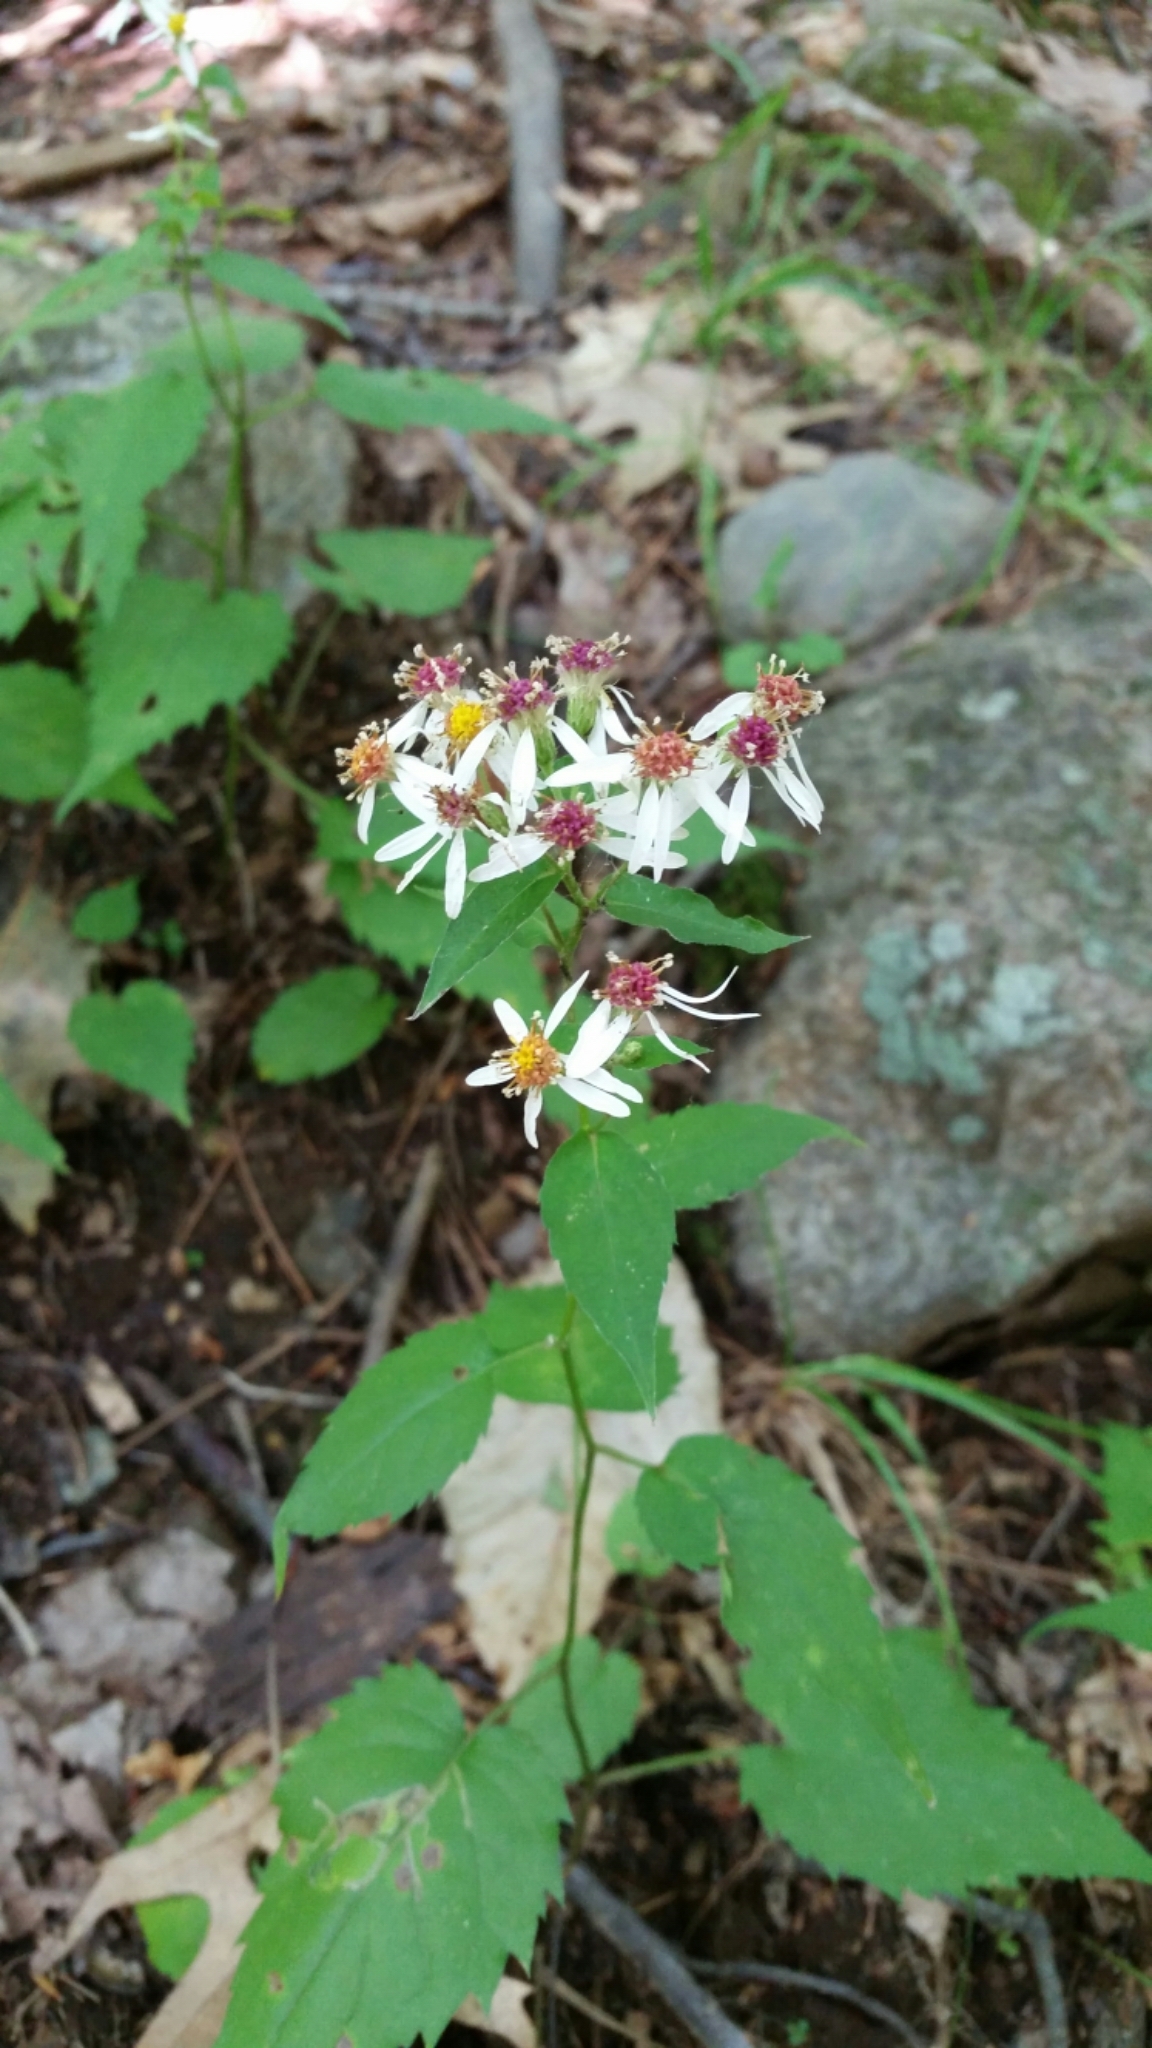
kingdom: Plantae
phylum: Tracheophyta
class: Magnoliopsida
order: Asterales
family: Asteraceae
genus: Eurybia
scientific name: Eurybia divaricata
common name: White wood aster
